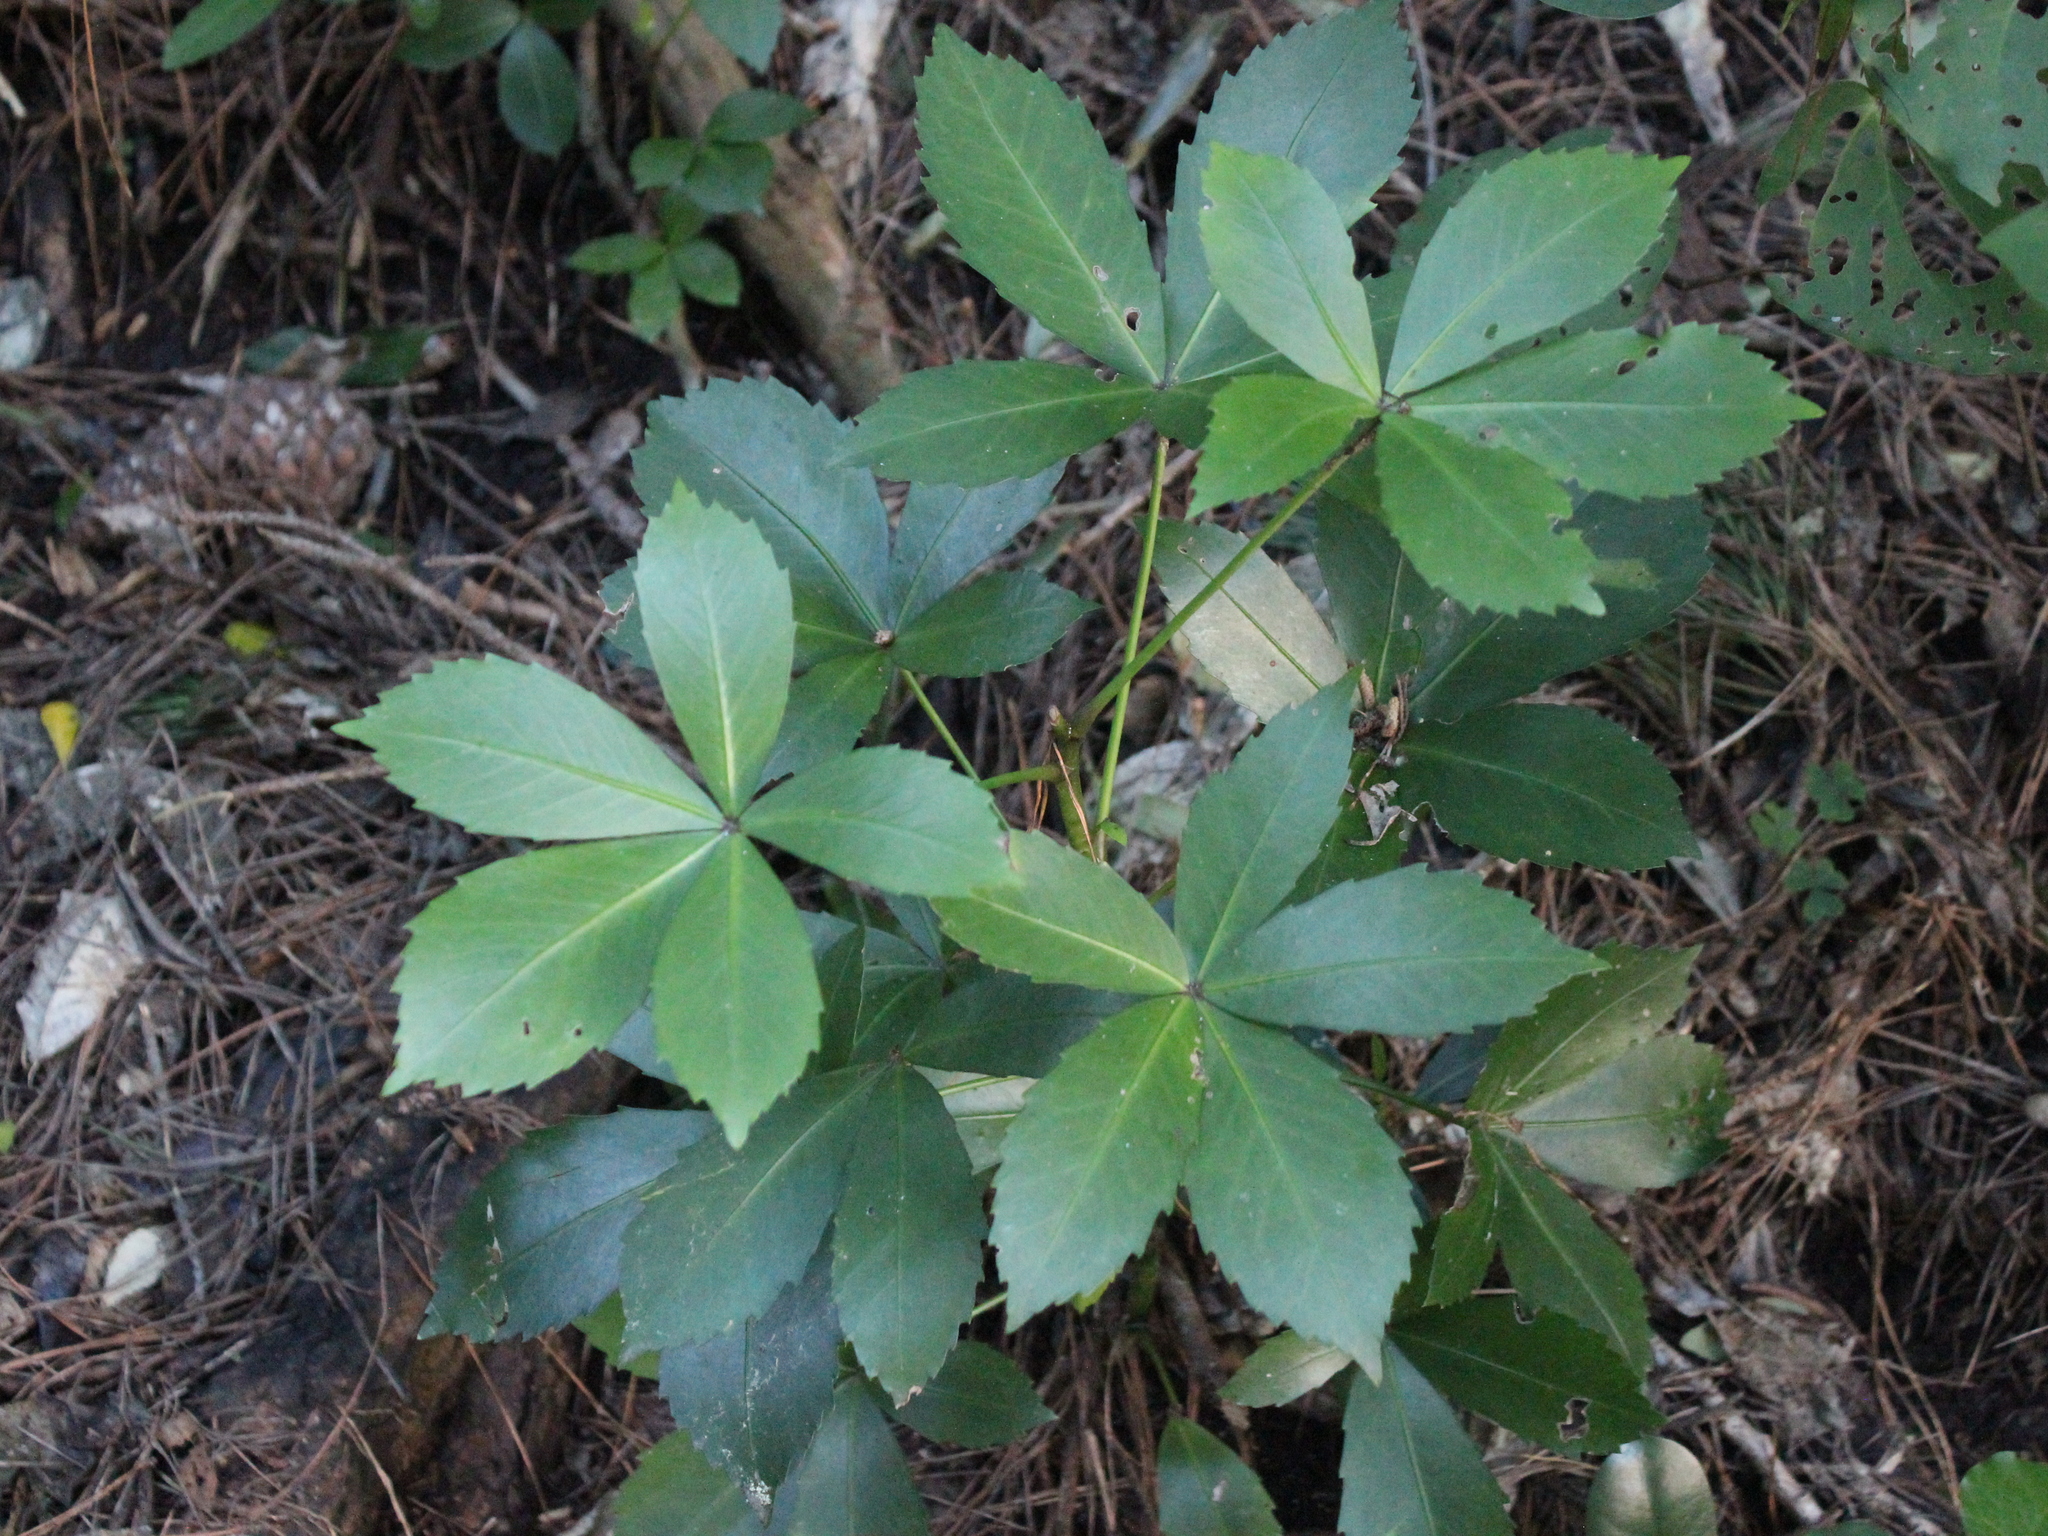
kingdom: Plantae
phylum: Tracheophyta
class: Magnoliopsida
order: Apiales
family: Araliaceae
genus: Pseudopanax
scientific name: Pseudopanax lessonii
